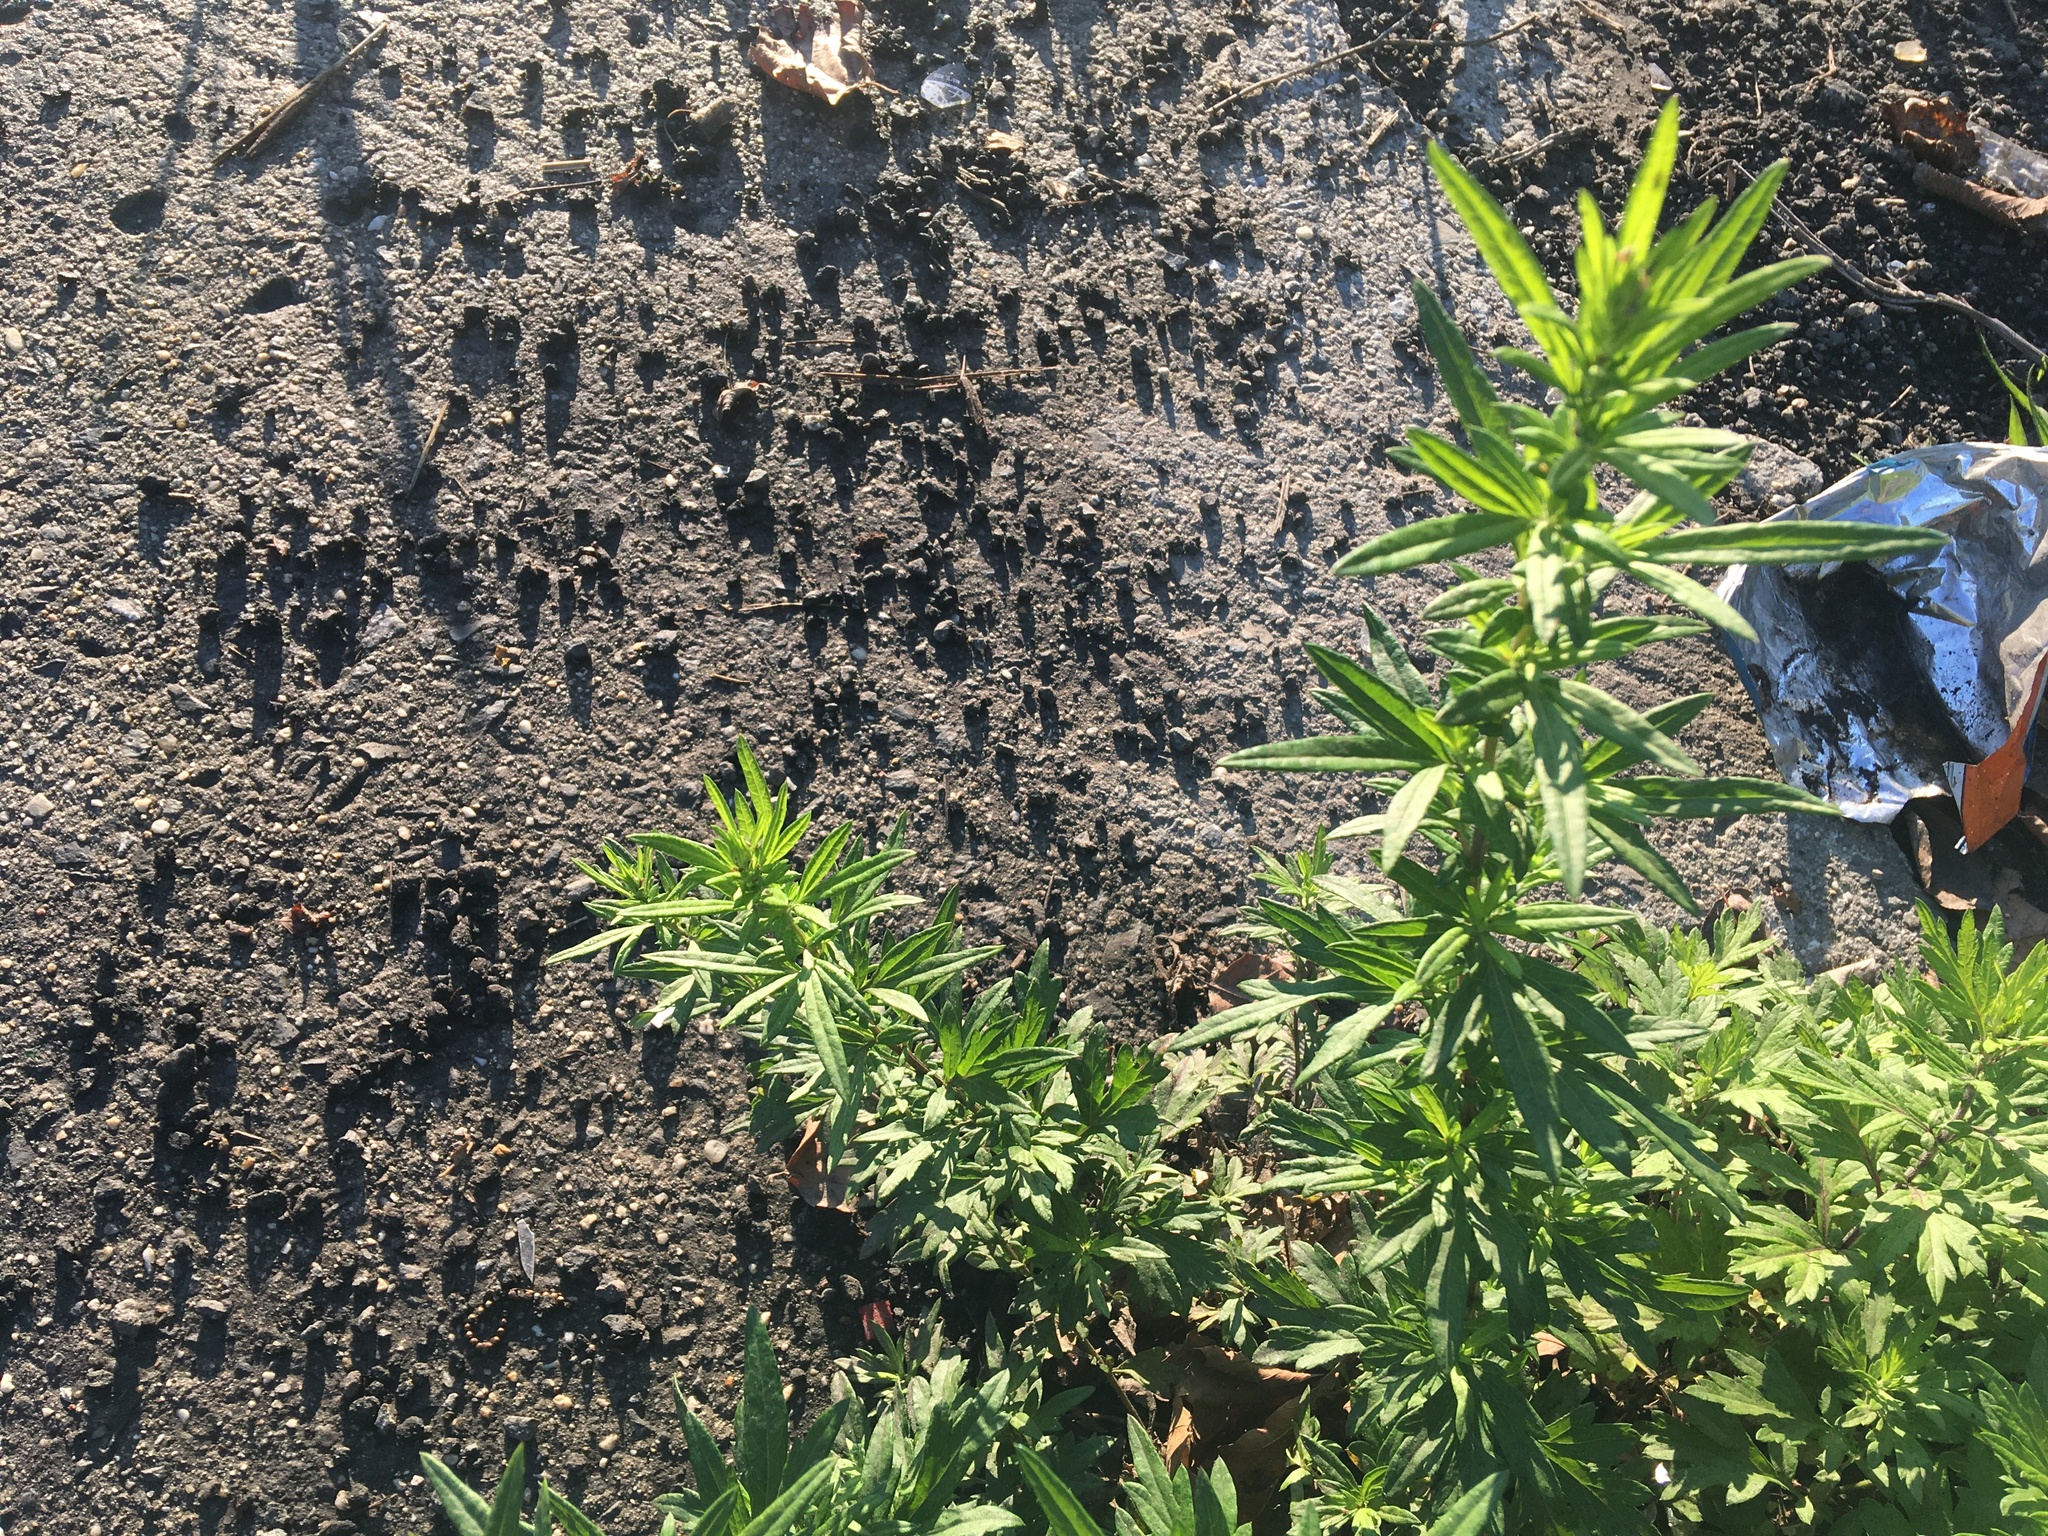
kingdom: Plantae
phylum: Tracheophyta
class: Magnoliopsida
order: Asterales
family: Asteraceae
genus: Artemisia
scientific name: Artemisia vulgaris
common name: Mugwort
